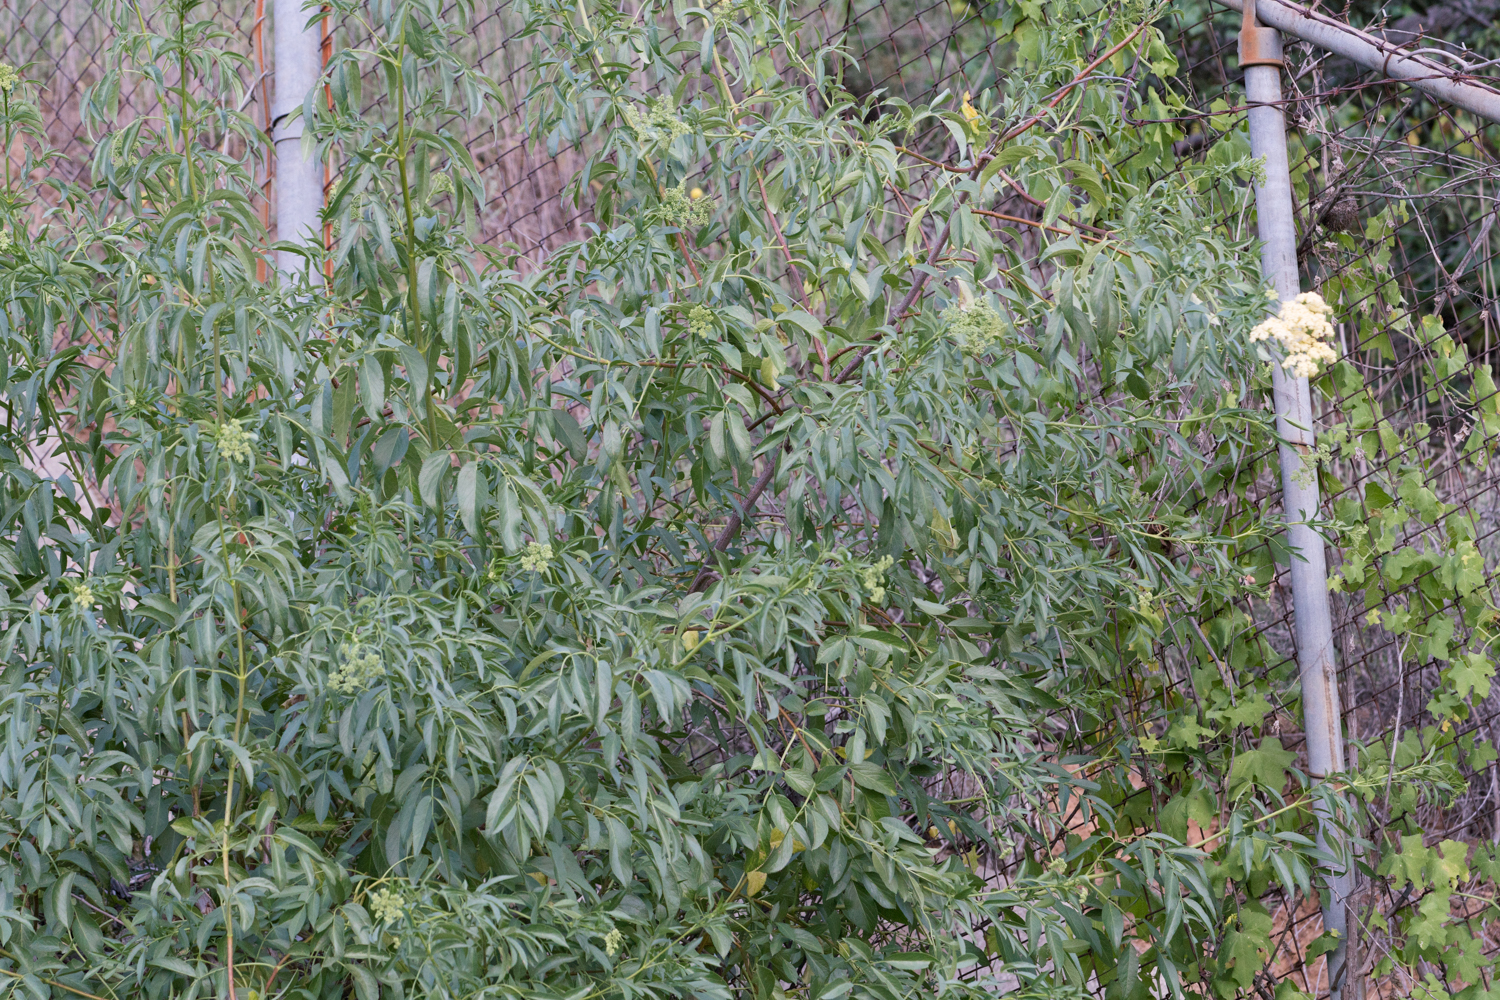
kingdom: Plantae
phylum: Tracheophyta
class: Magnoliopsida
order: Dipsacales
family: Viburnaceae
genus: Sambucus
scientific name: Sambucus cerulea
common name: Blue elder
